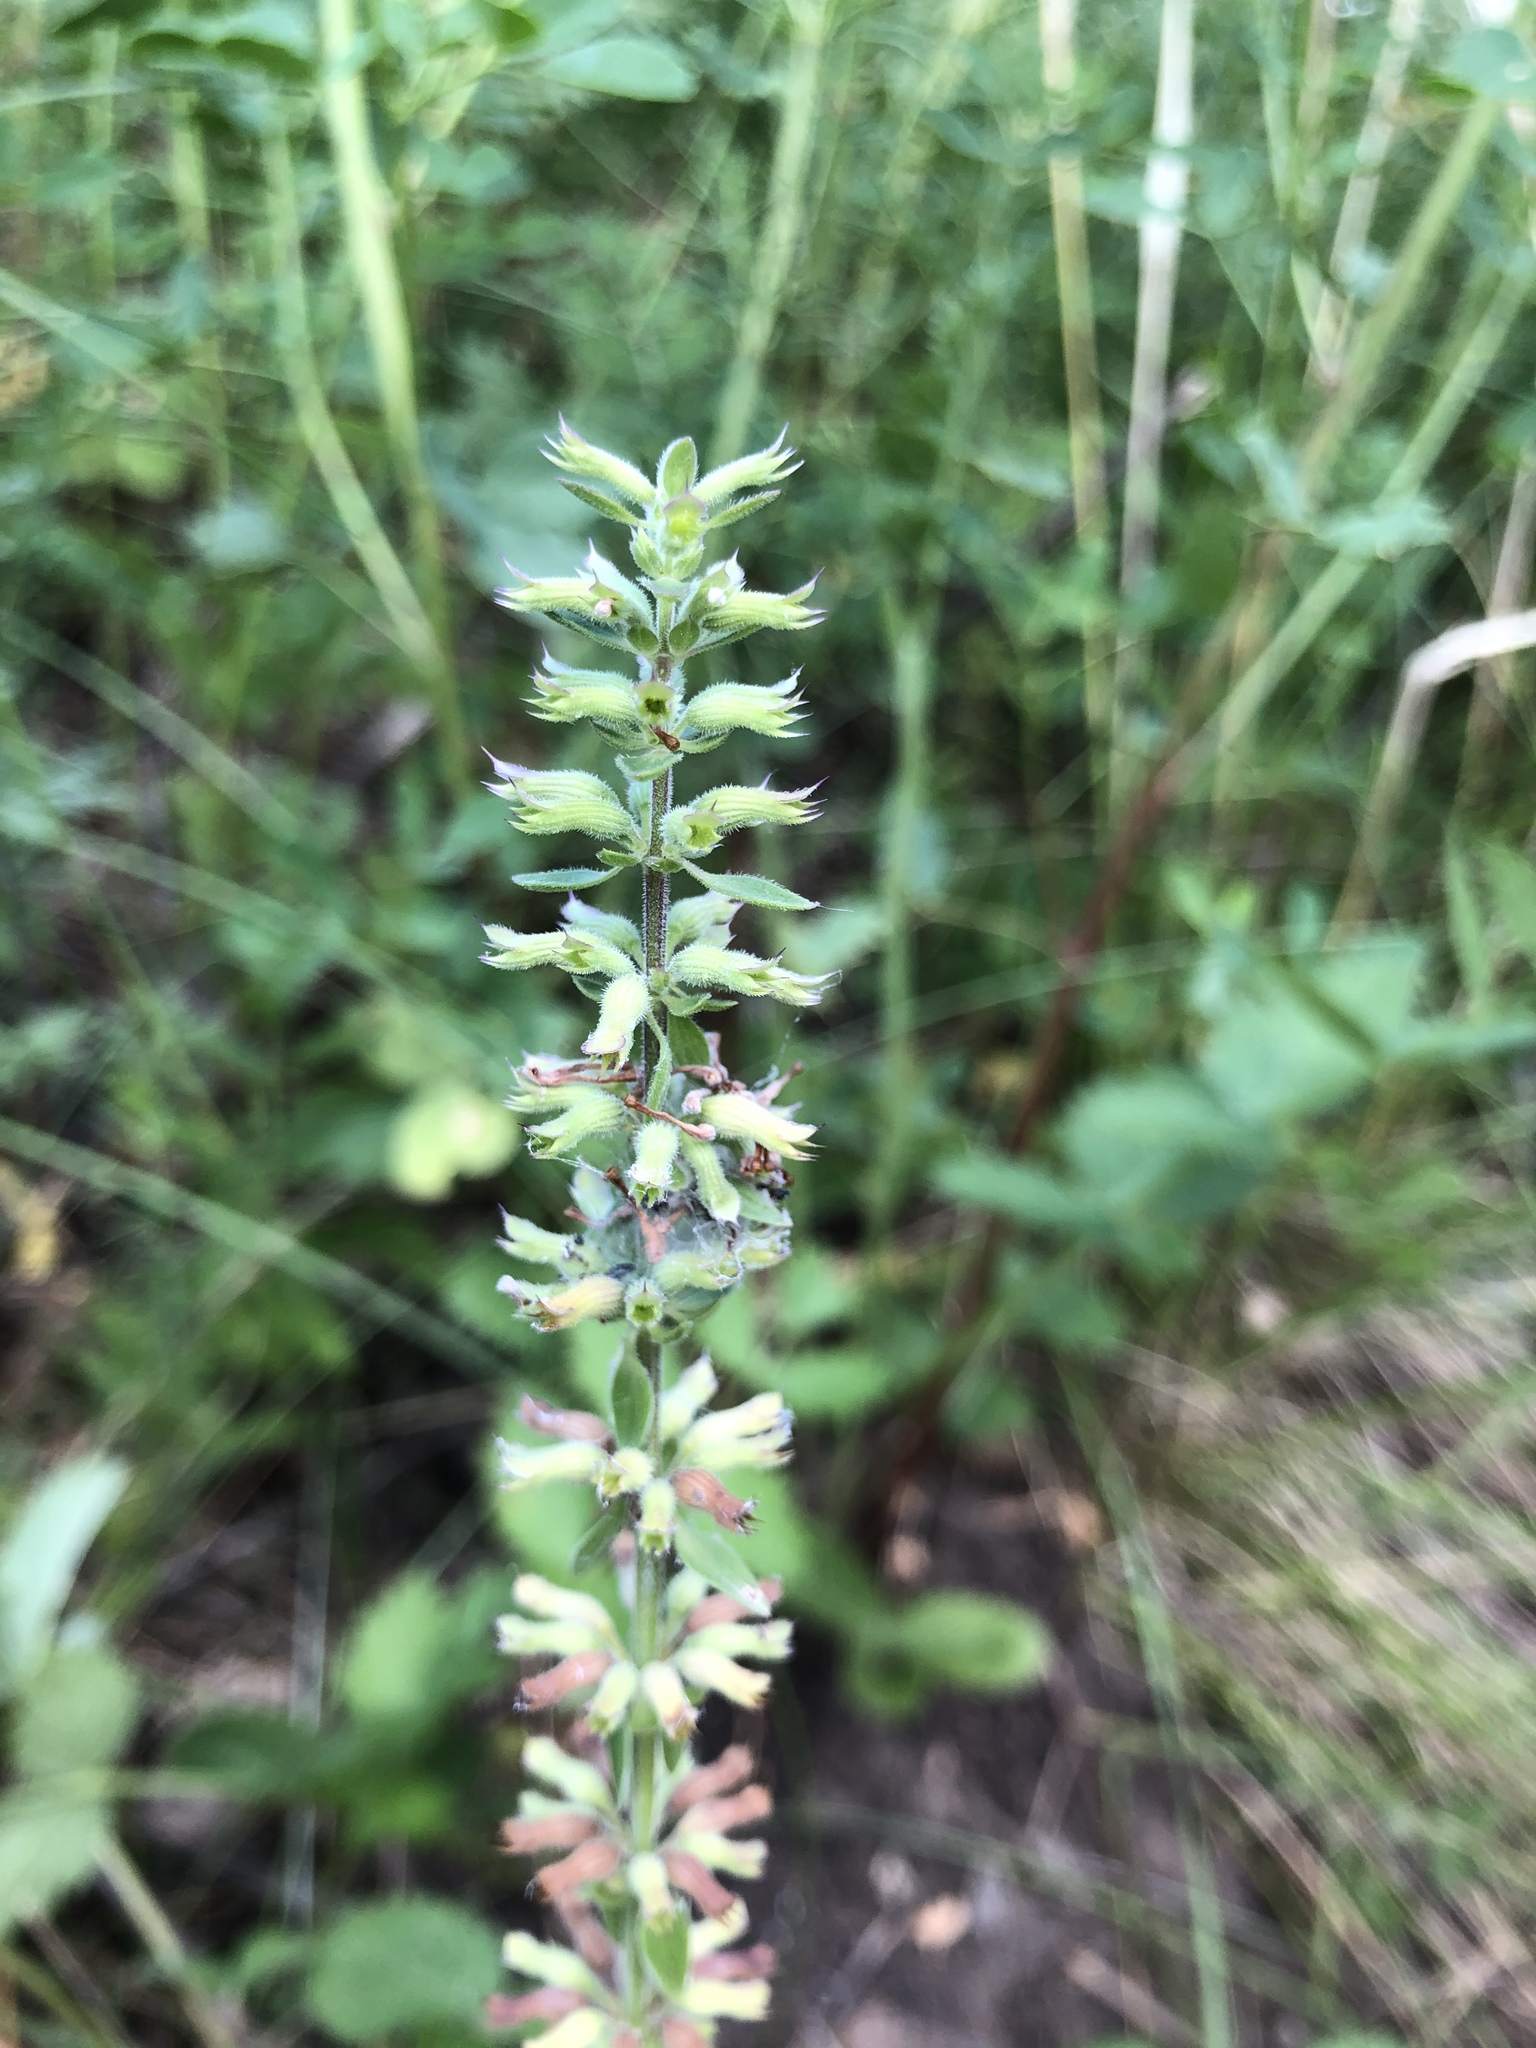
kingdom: Plantae
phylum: Tracheophyta
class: Magnoliopsida
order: Lamiales
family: Lamiaceae
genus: Dracocephalum
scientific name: Dracocephalum thymiflorum
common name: Thymeleaf dragonhead
